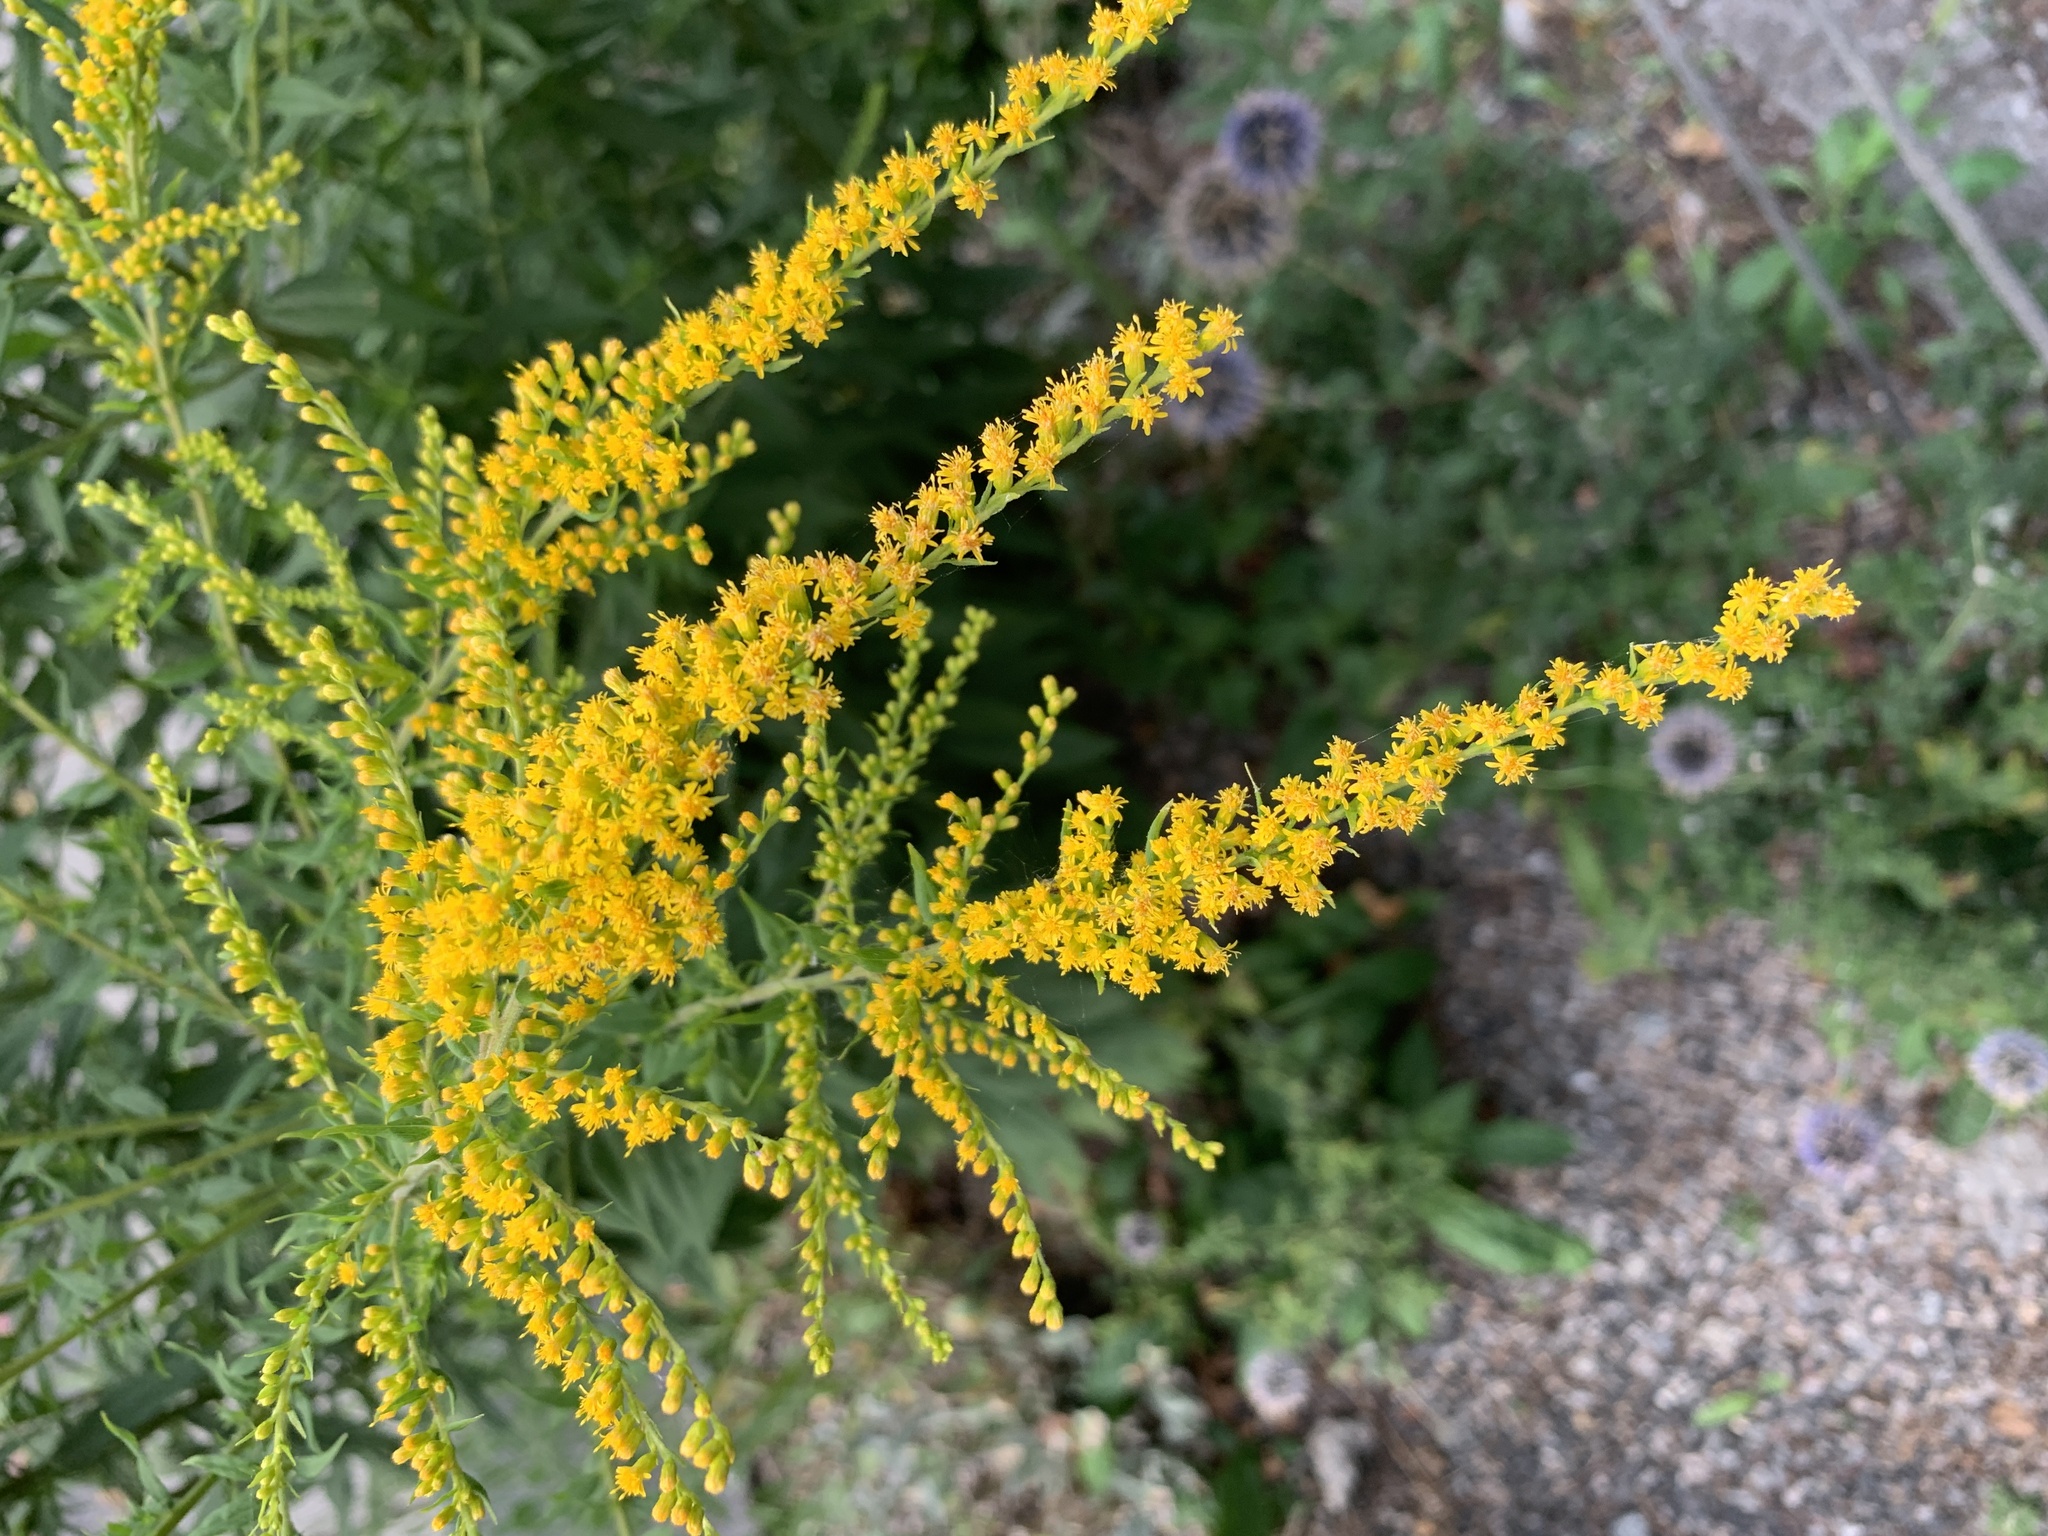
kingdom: Plantae
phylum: Tracheophyta
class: Magnoliopsida
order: Asterales
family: Asteraceae
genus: Solidago
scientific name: Solidago canadensis
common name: Canada goldenrod
